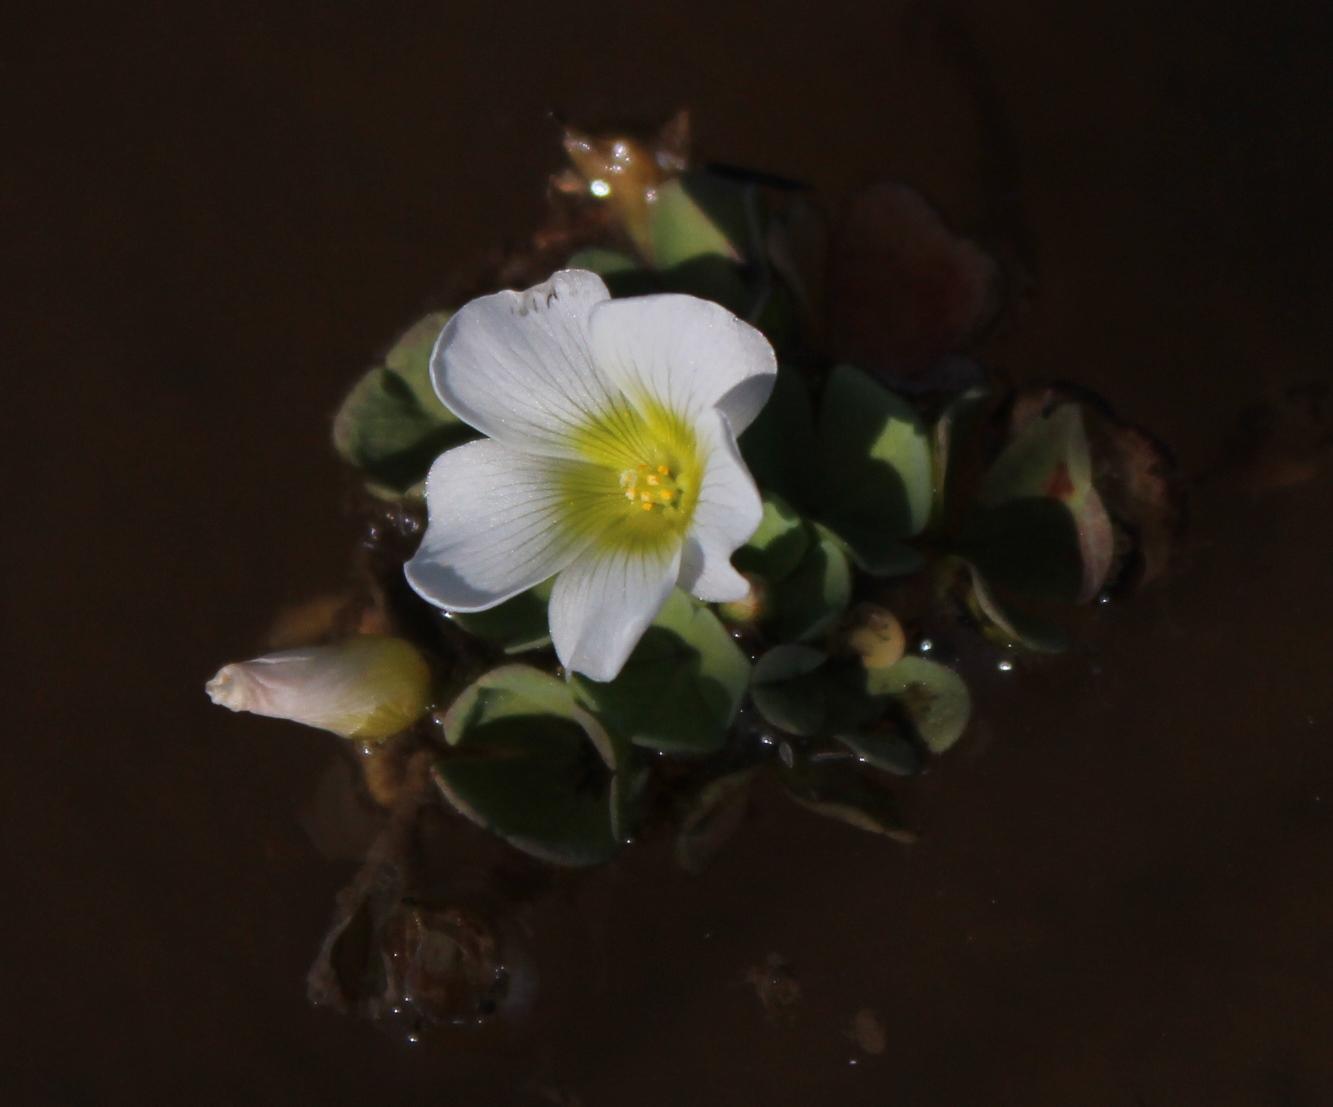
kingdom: Plantae
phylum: Tracheophyta
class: Magnoliopsida
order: Oxalidales
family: Oxalidaceae
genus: Oxalis
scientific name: Oxalis natans
